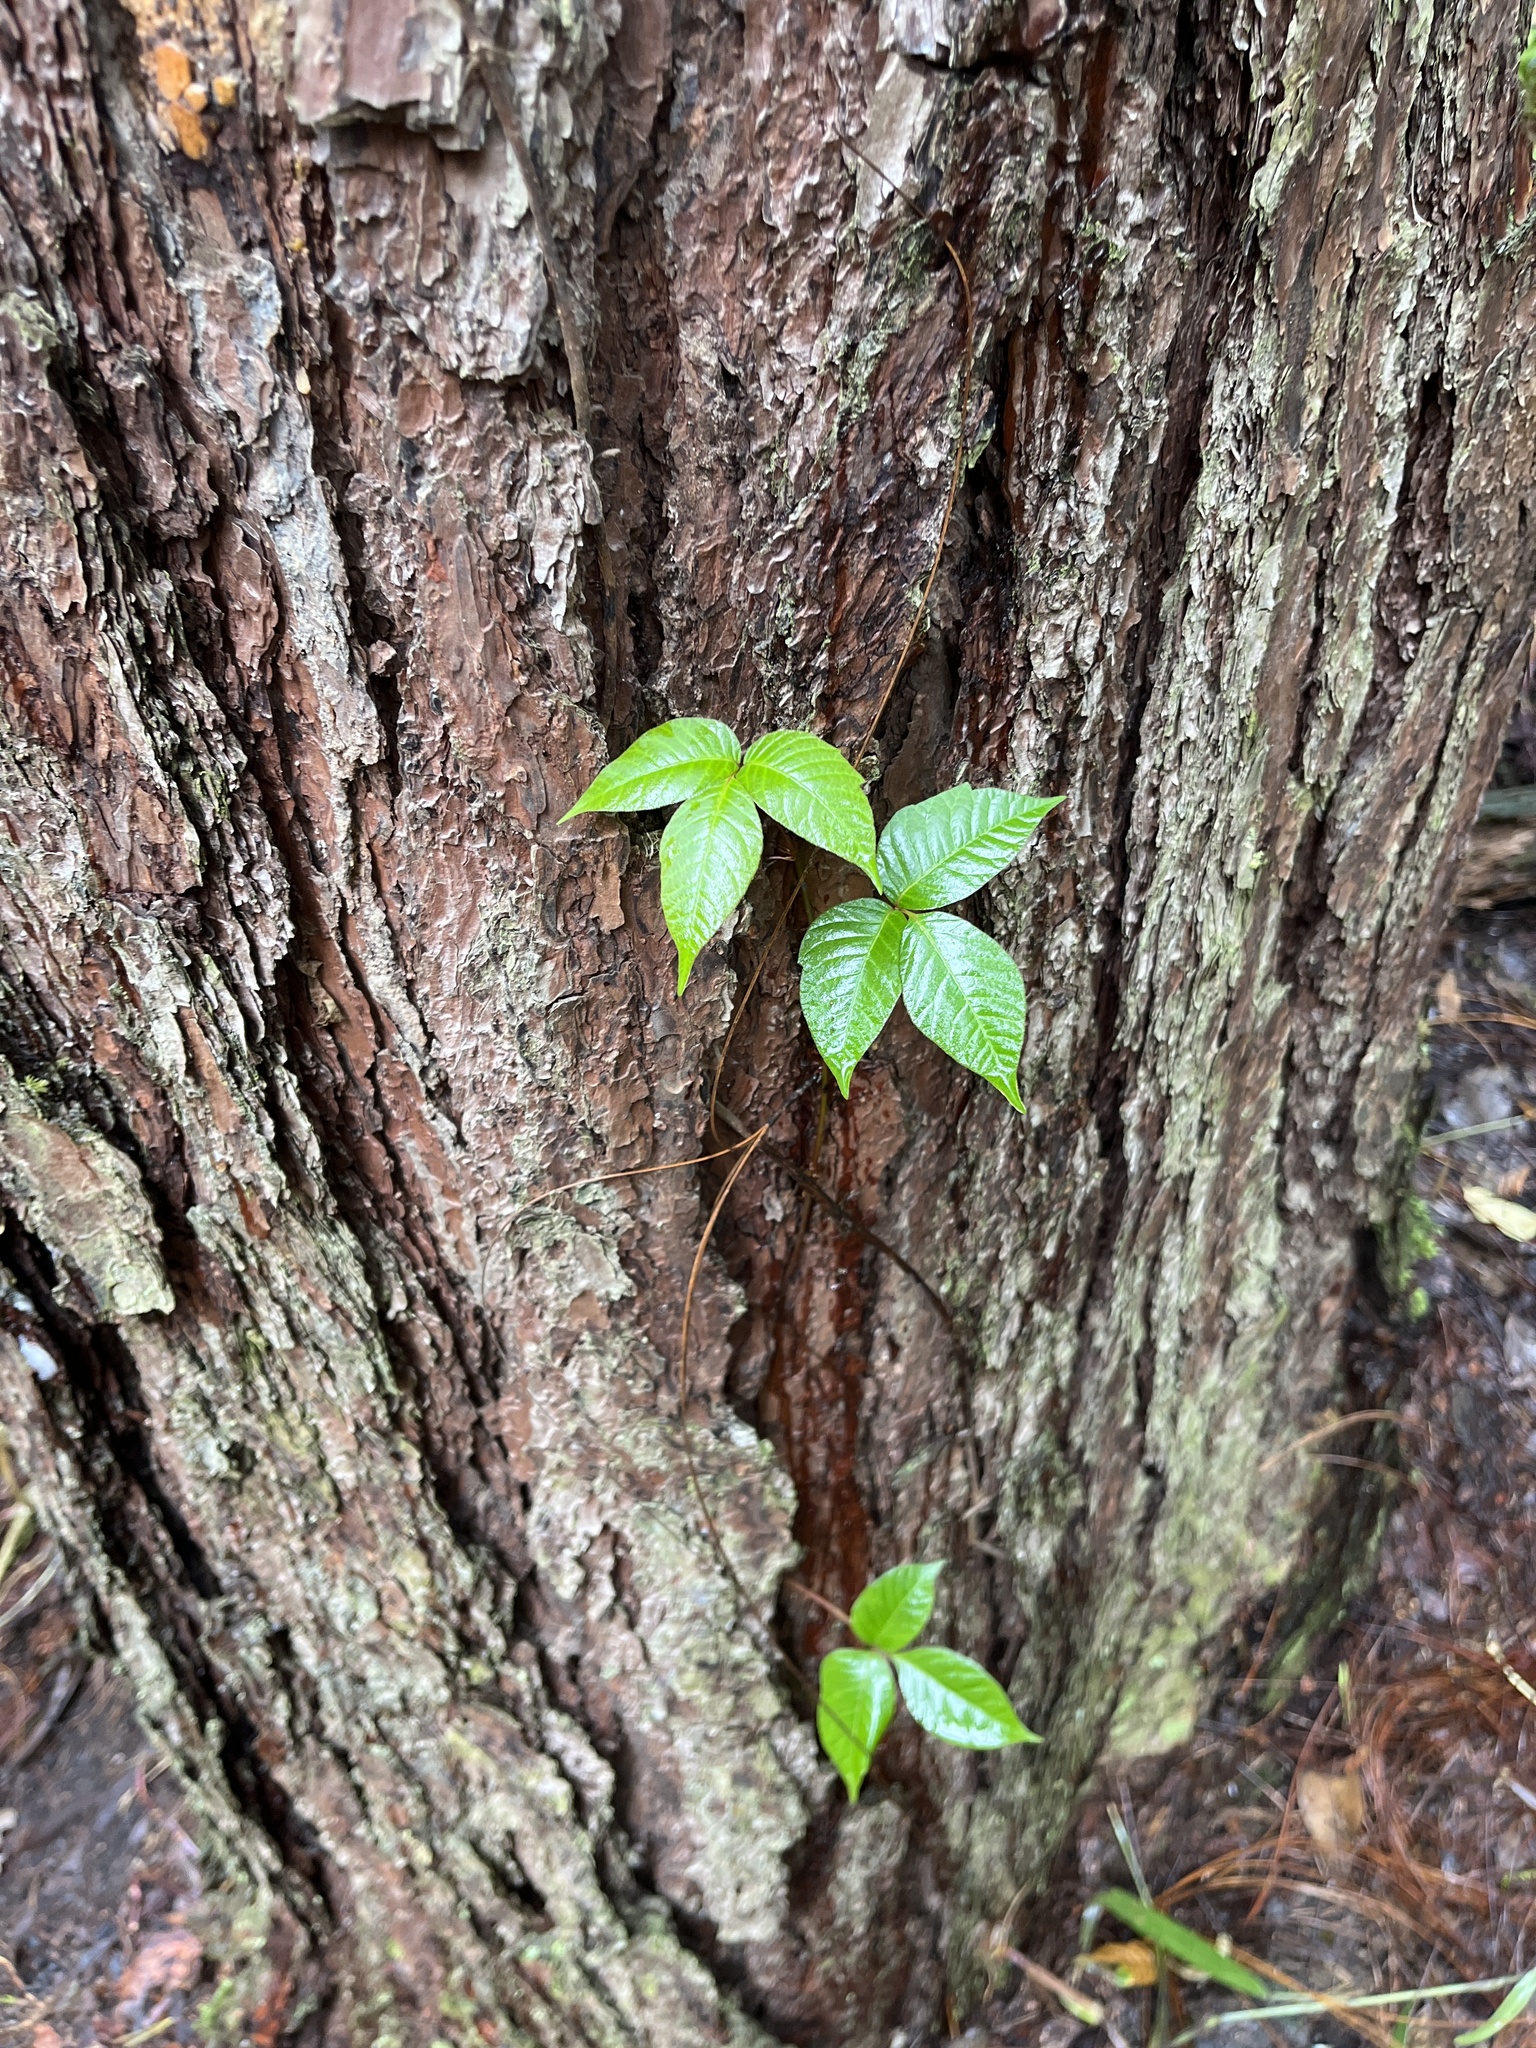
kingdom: Plantae
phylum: Tracheophyta
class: Magnoliopsida
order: Sapindales
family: Anacardiaceae
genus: Toxicodendron
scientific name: Toxicodendron radicans
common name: Poison ivy
